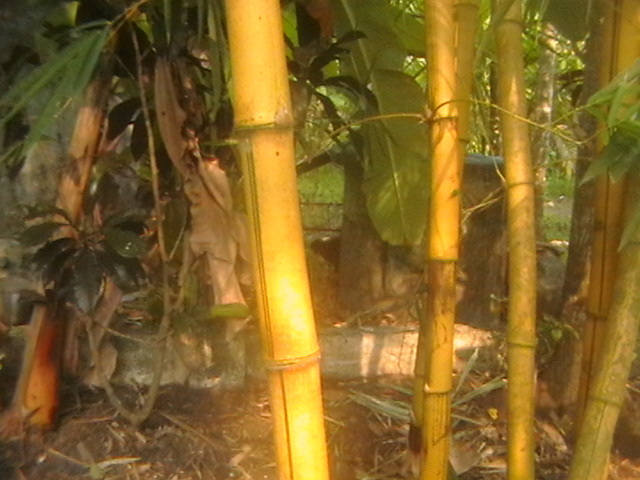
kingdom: Plantae
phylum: Tracheophyta
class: Liliopsida
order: Poales
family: Poaceae
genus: Bambusa
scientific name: Bambusa vulgaris
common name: Common bamboo
